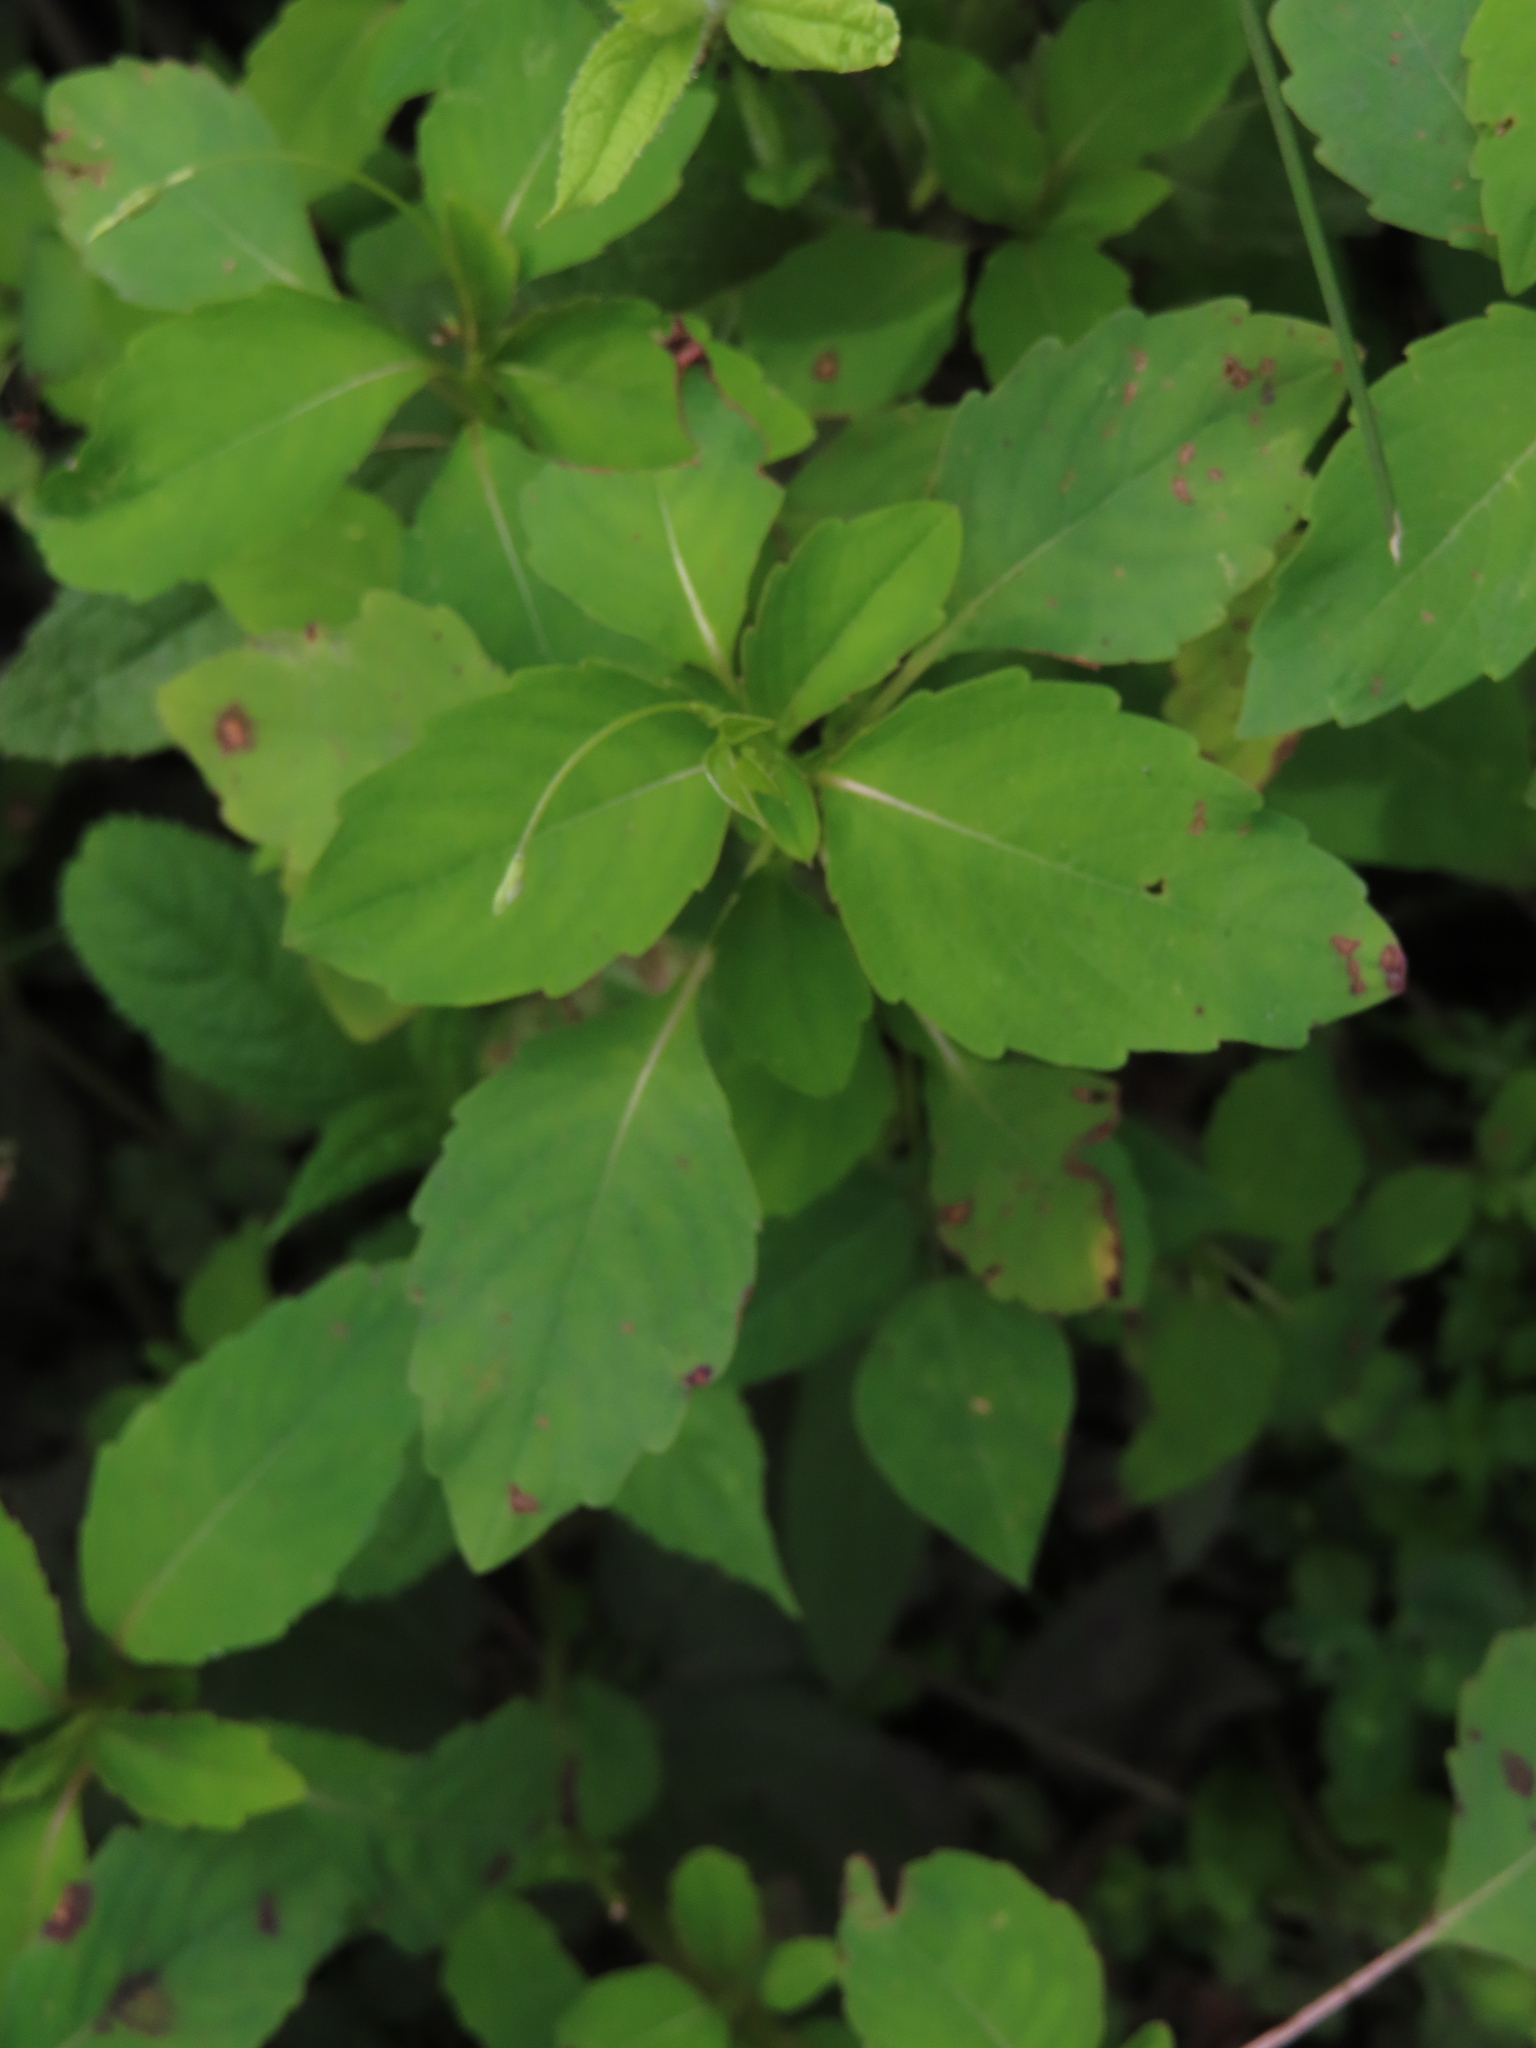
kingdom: Plantae
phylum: Tracheophyta
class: Magnoliopsida
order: Ericales
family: Balsaminaceae
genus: Impatiens
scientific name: Impatiens capensis
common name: Orange balsam
